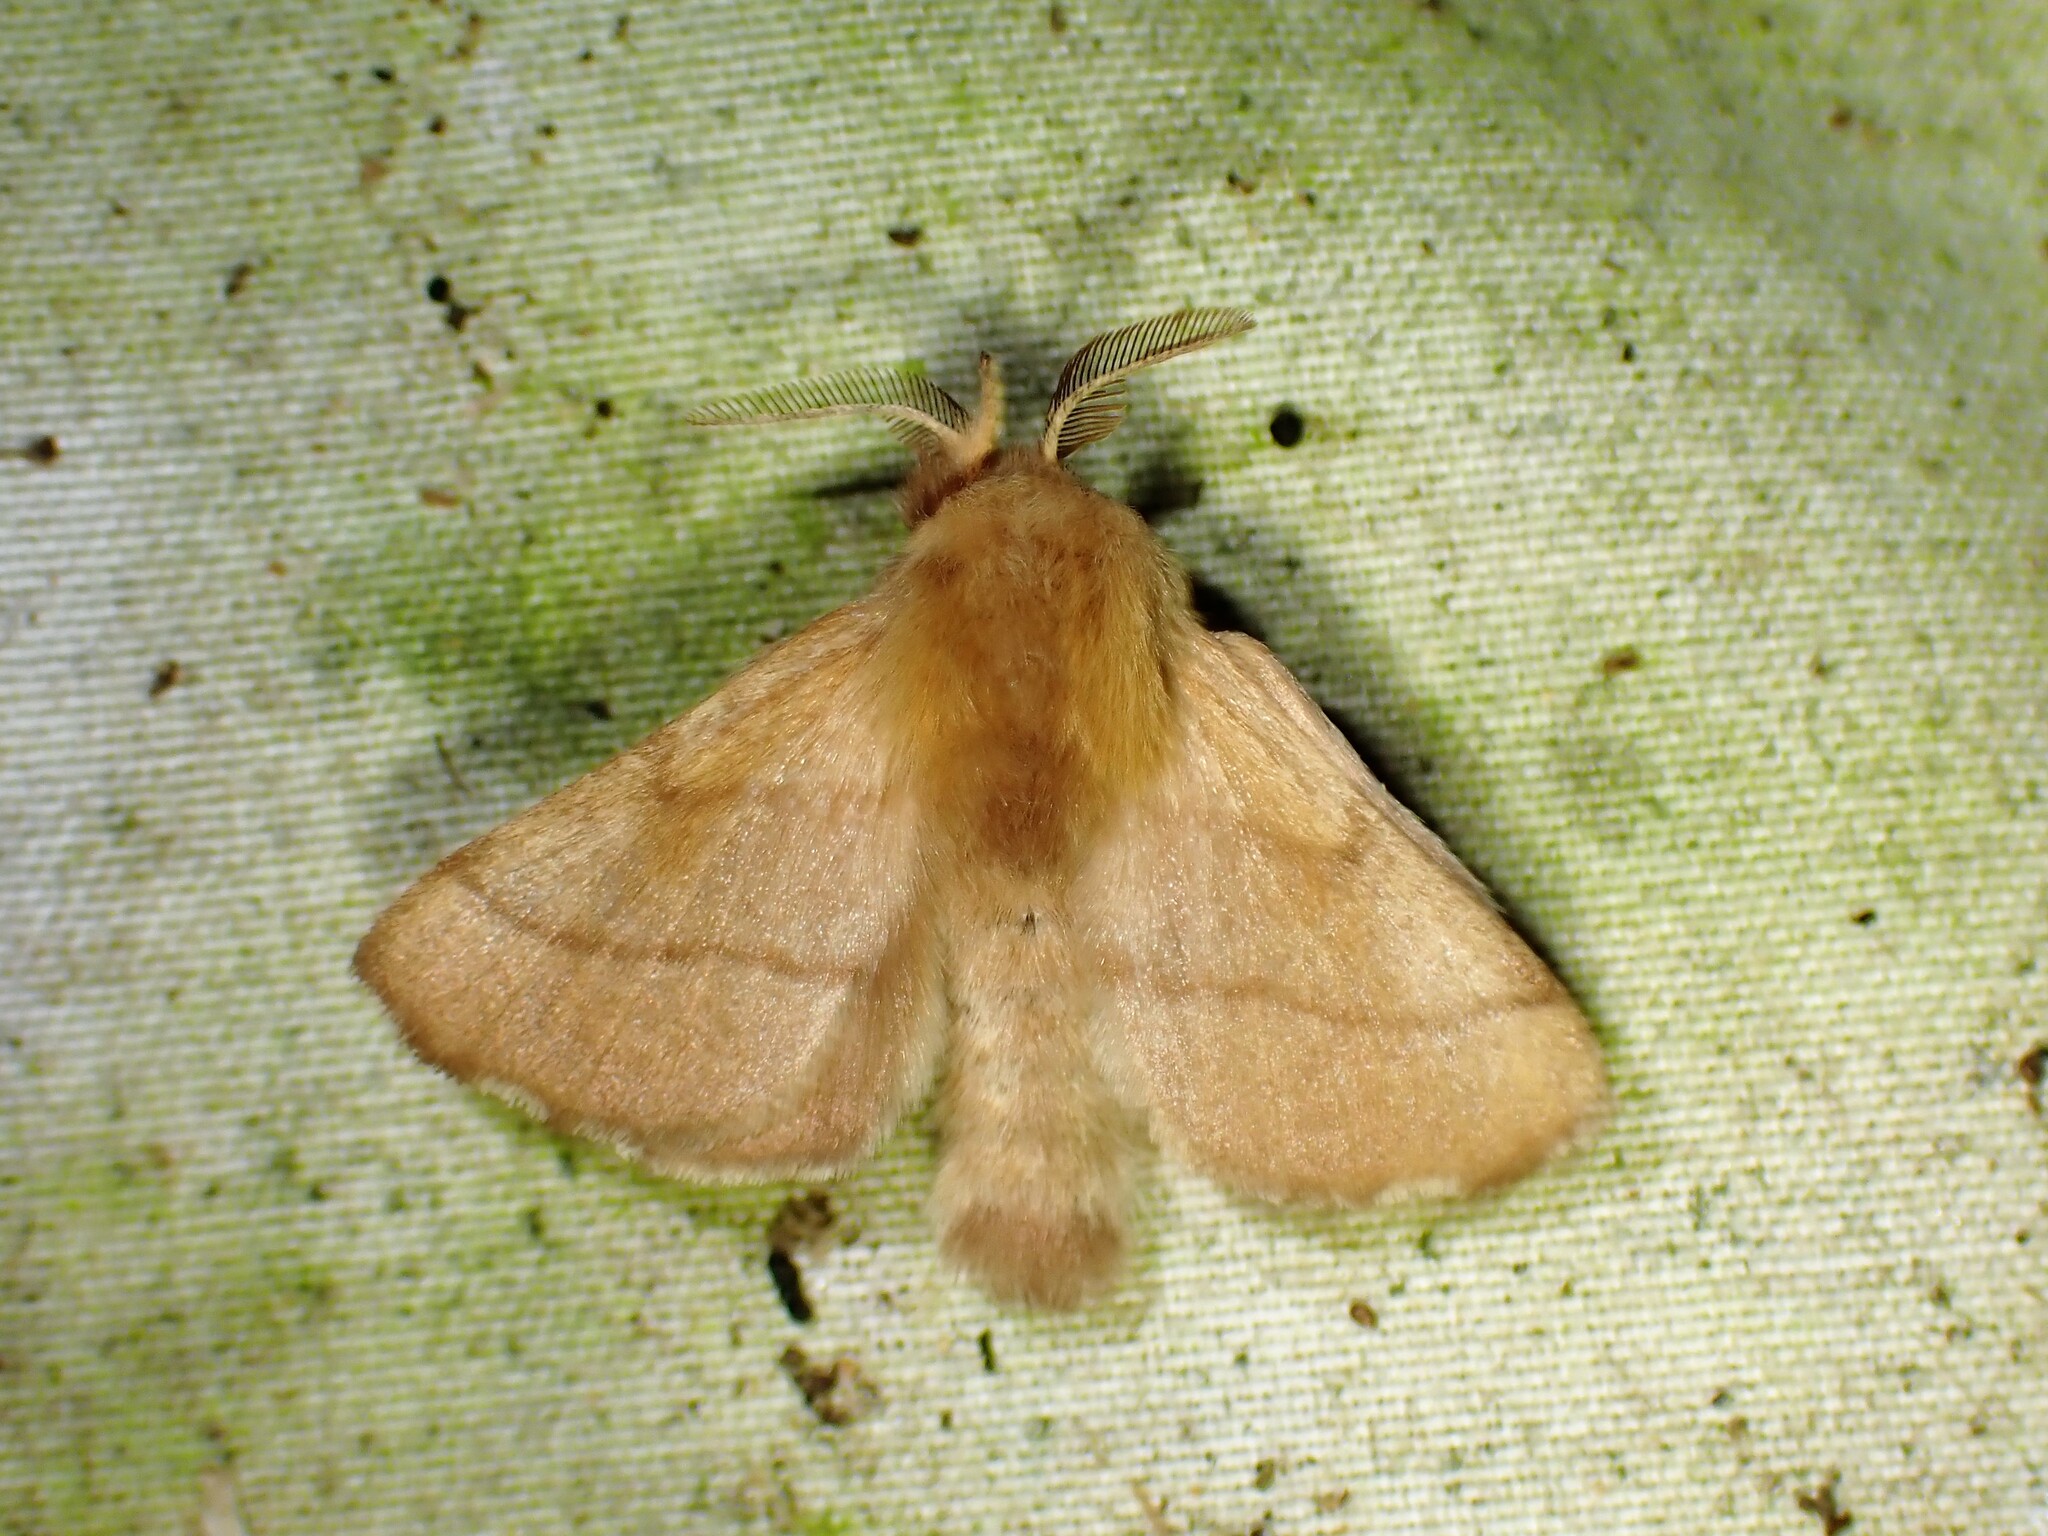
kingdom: Animalia
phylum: Arthropoda
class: Insecta
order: Lepidoptera
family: Lasiocampidae
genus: Malacosoma
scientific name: Malacosoma disstria
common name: Forest tent caterpillar
